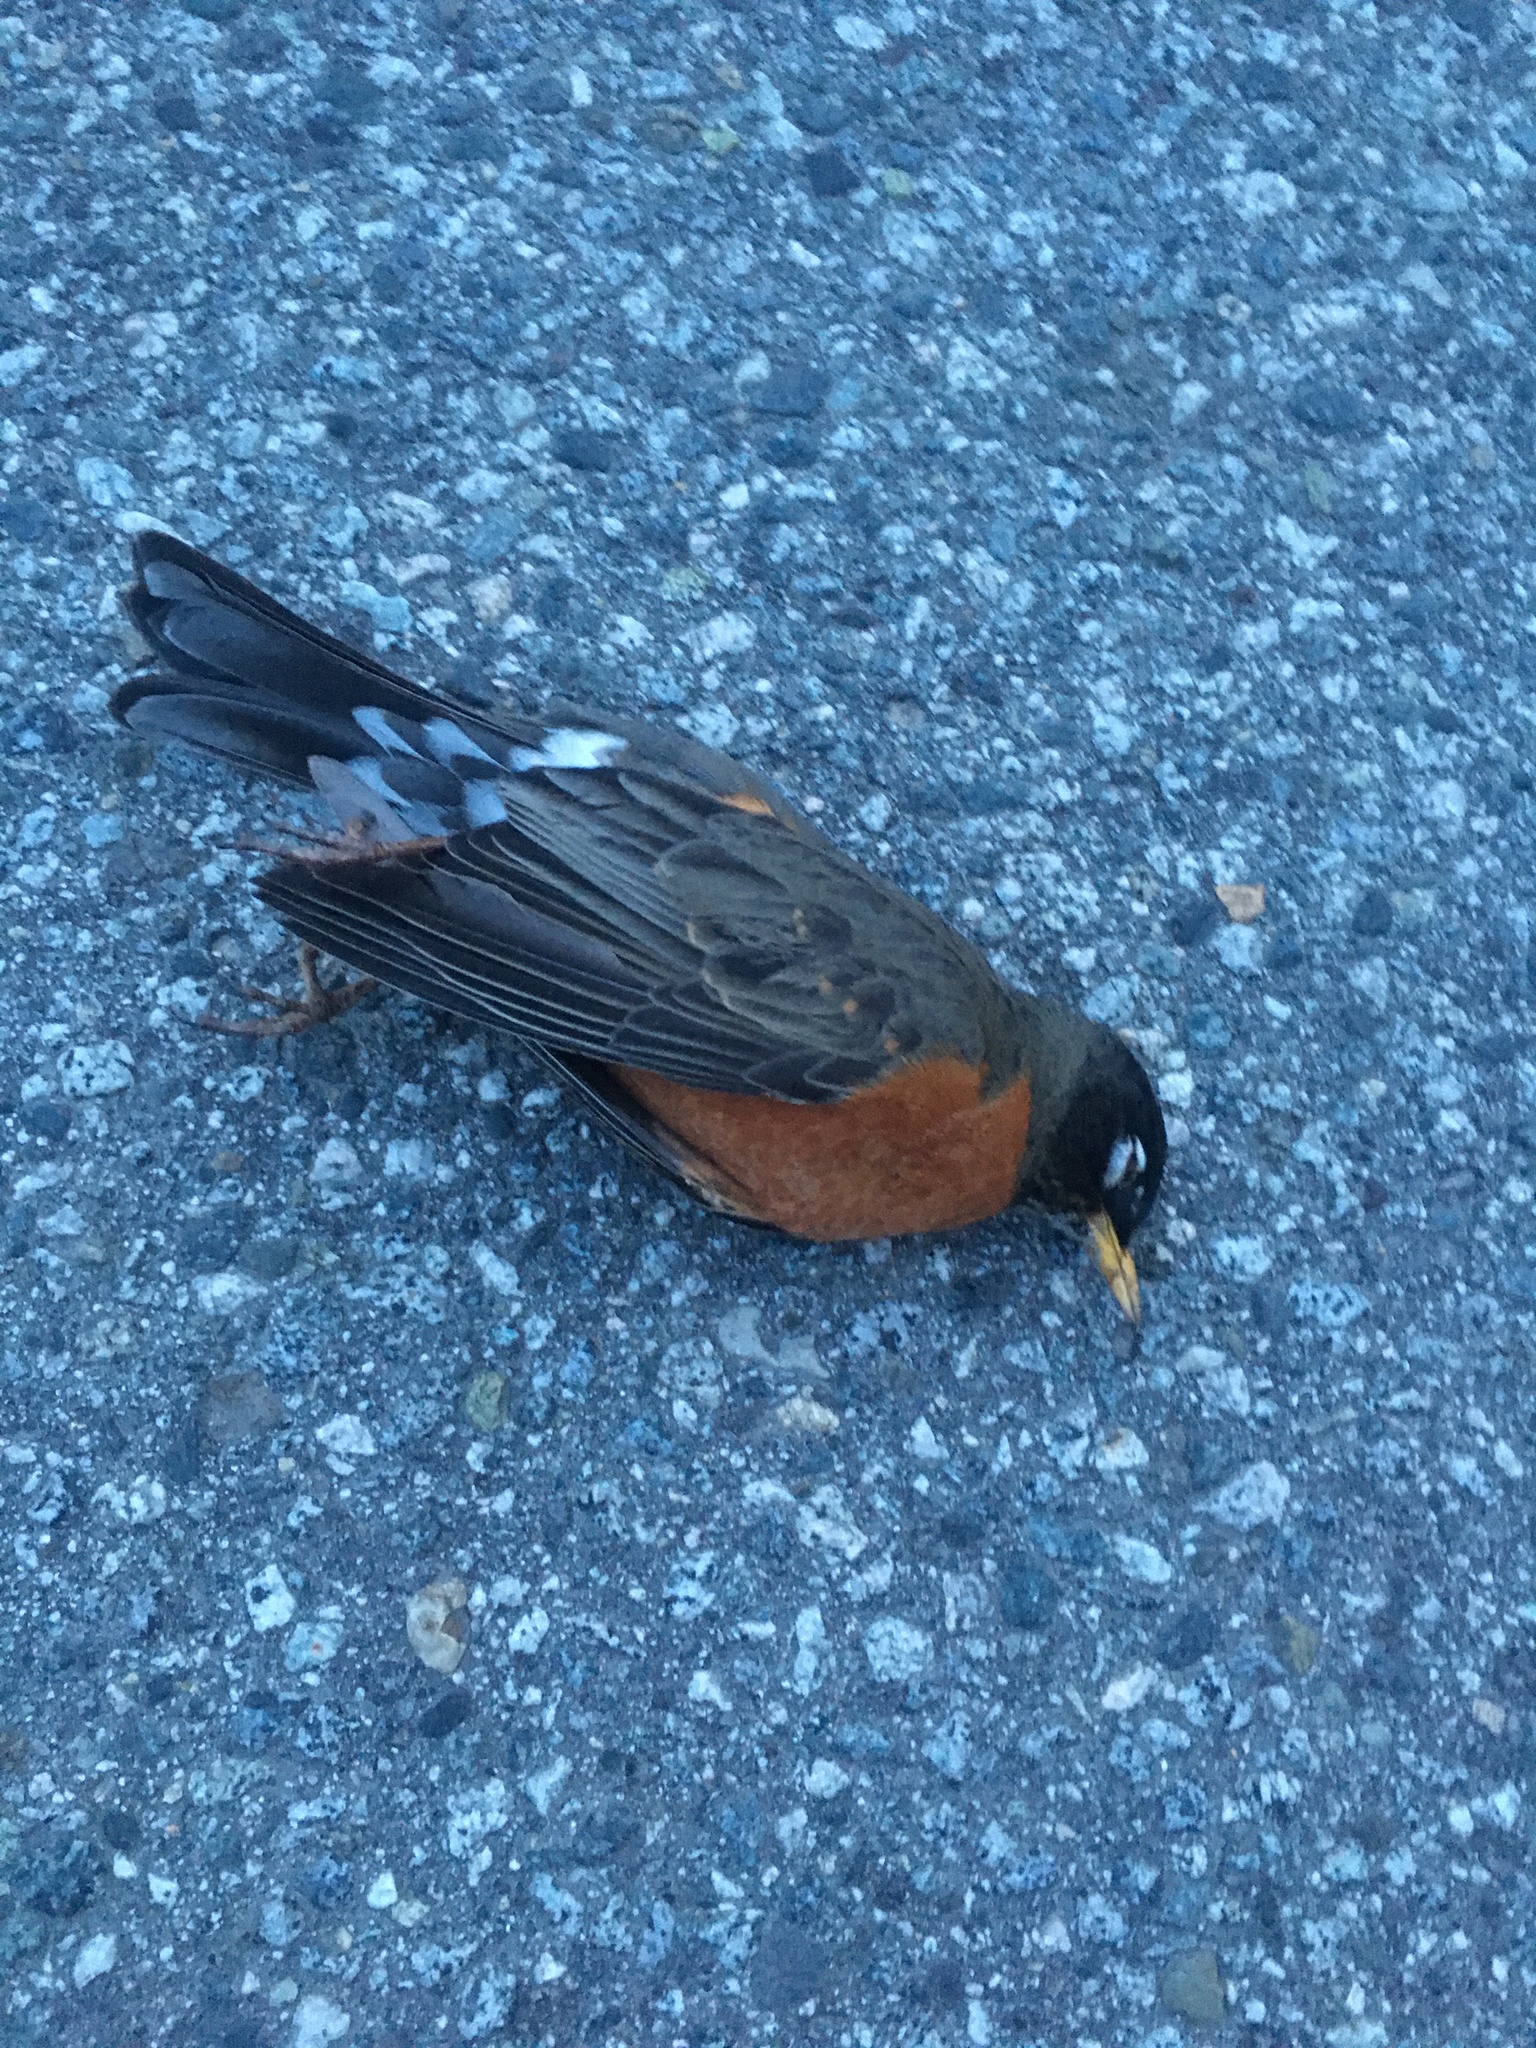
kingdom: Animalia
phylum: Chordata
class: Aves
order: Passeriformes
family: Turdidae
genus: Turdus
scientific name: Turdus migratorius
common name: American robin
